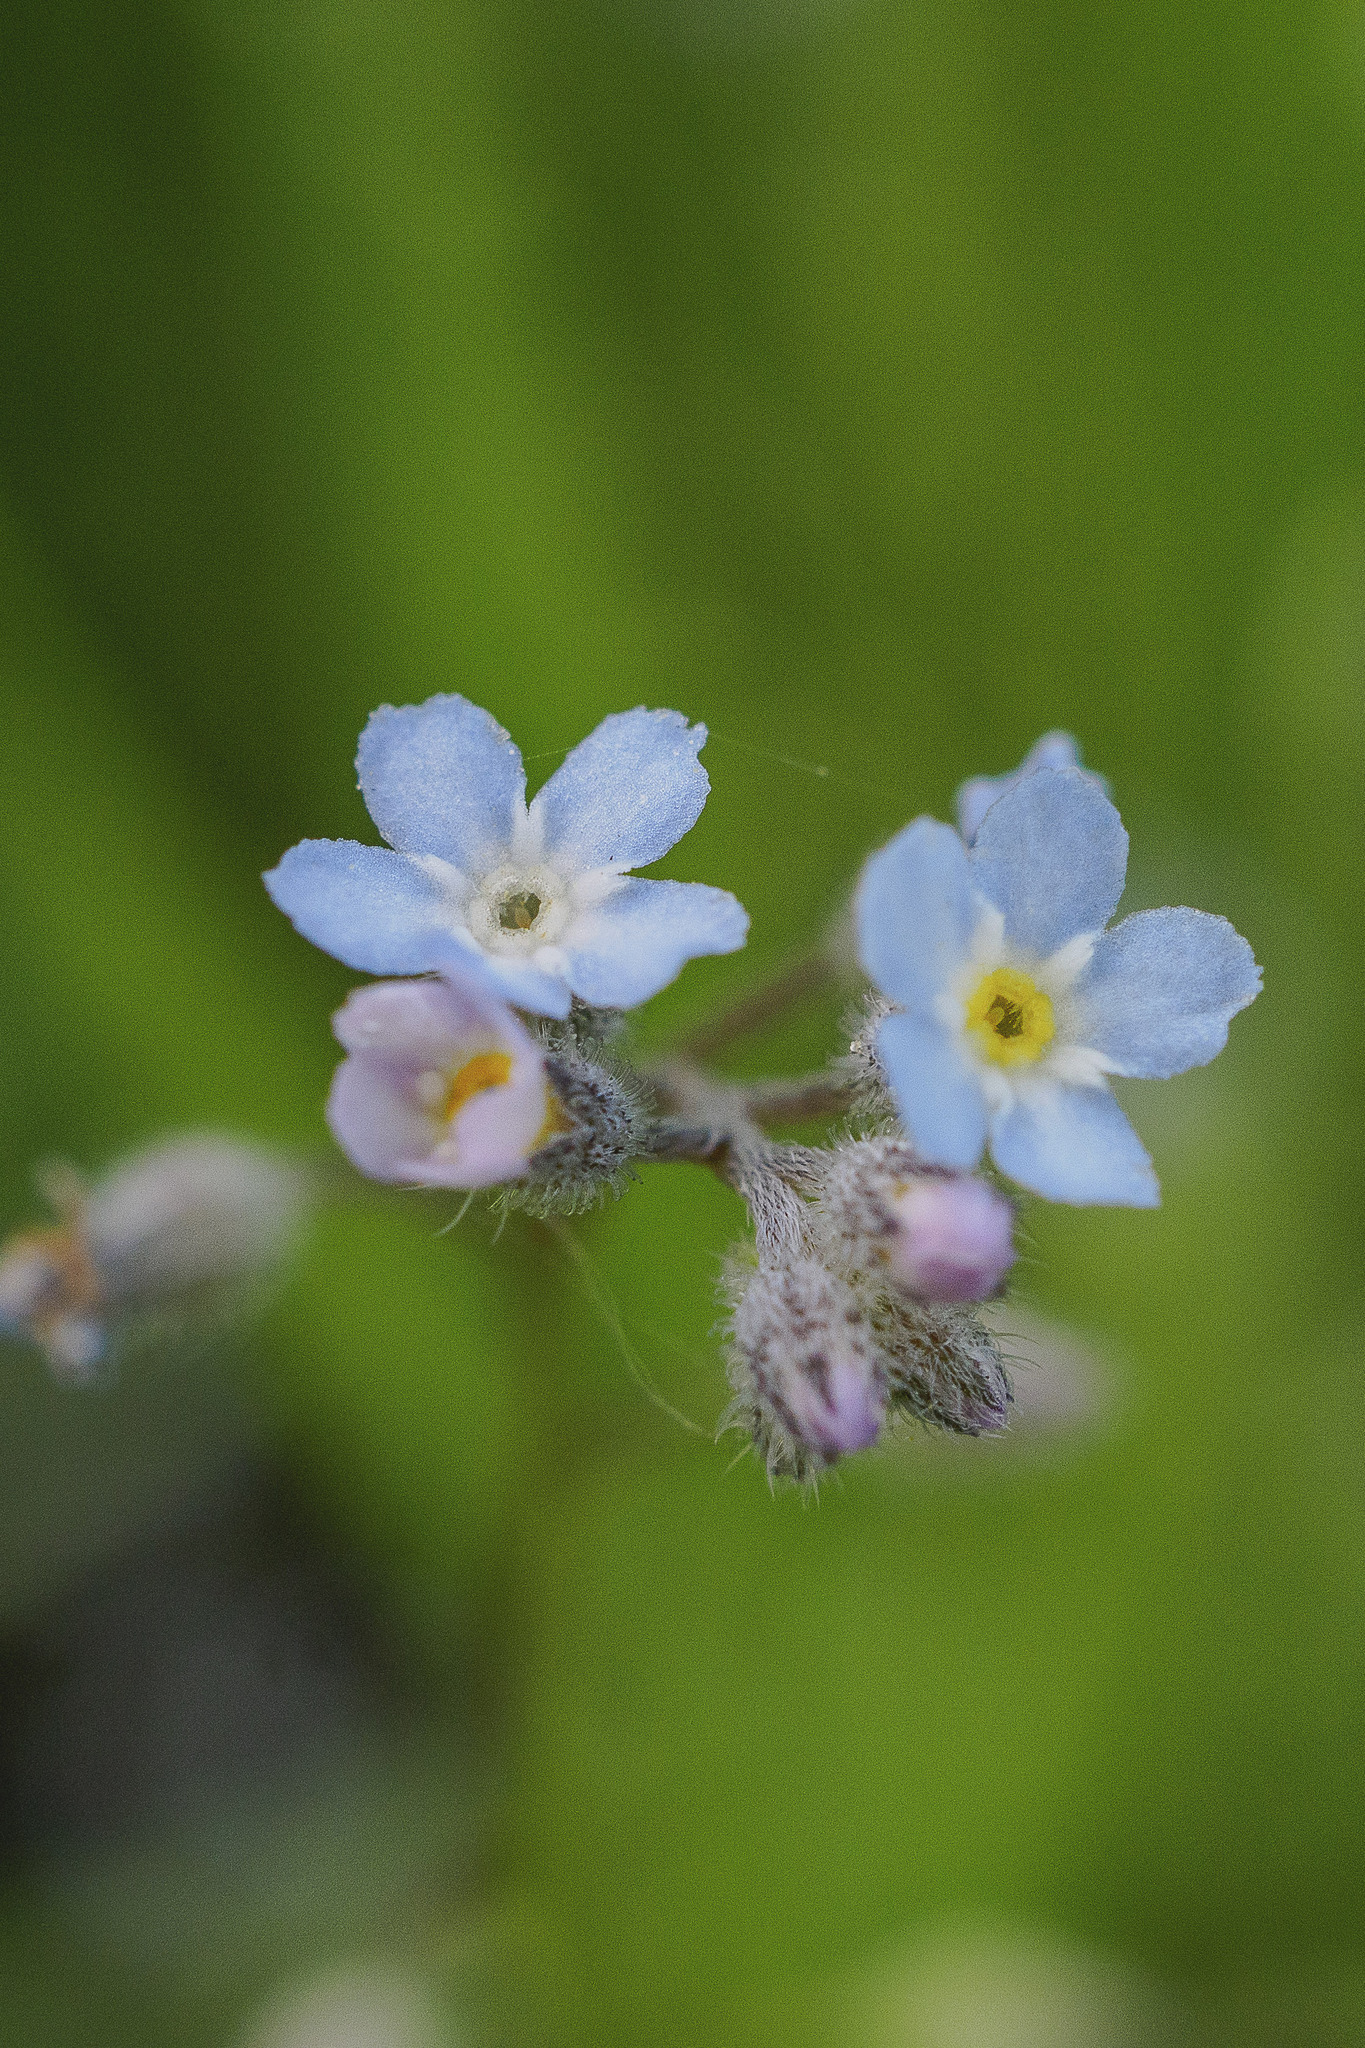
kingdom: Plantae
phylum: Tracheophyta
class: Magnoliopsida
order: Boraginales
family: Boraginaceae
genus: Myosotis
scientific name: Myosotis arvensis
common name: Field forget-me-not
